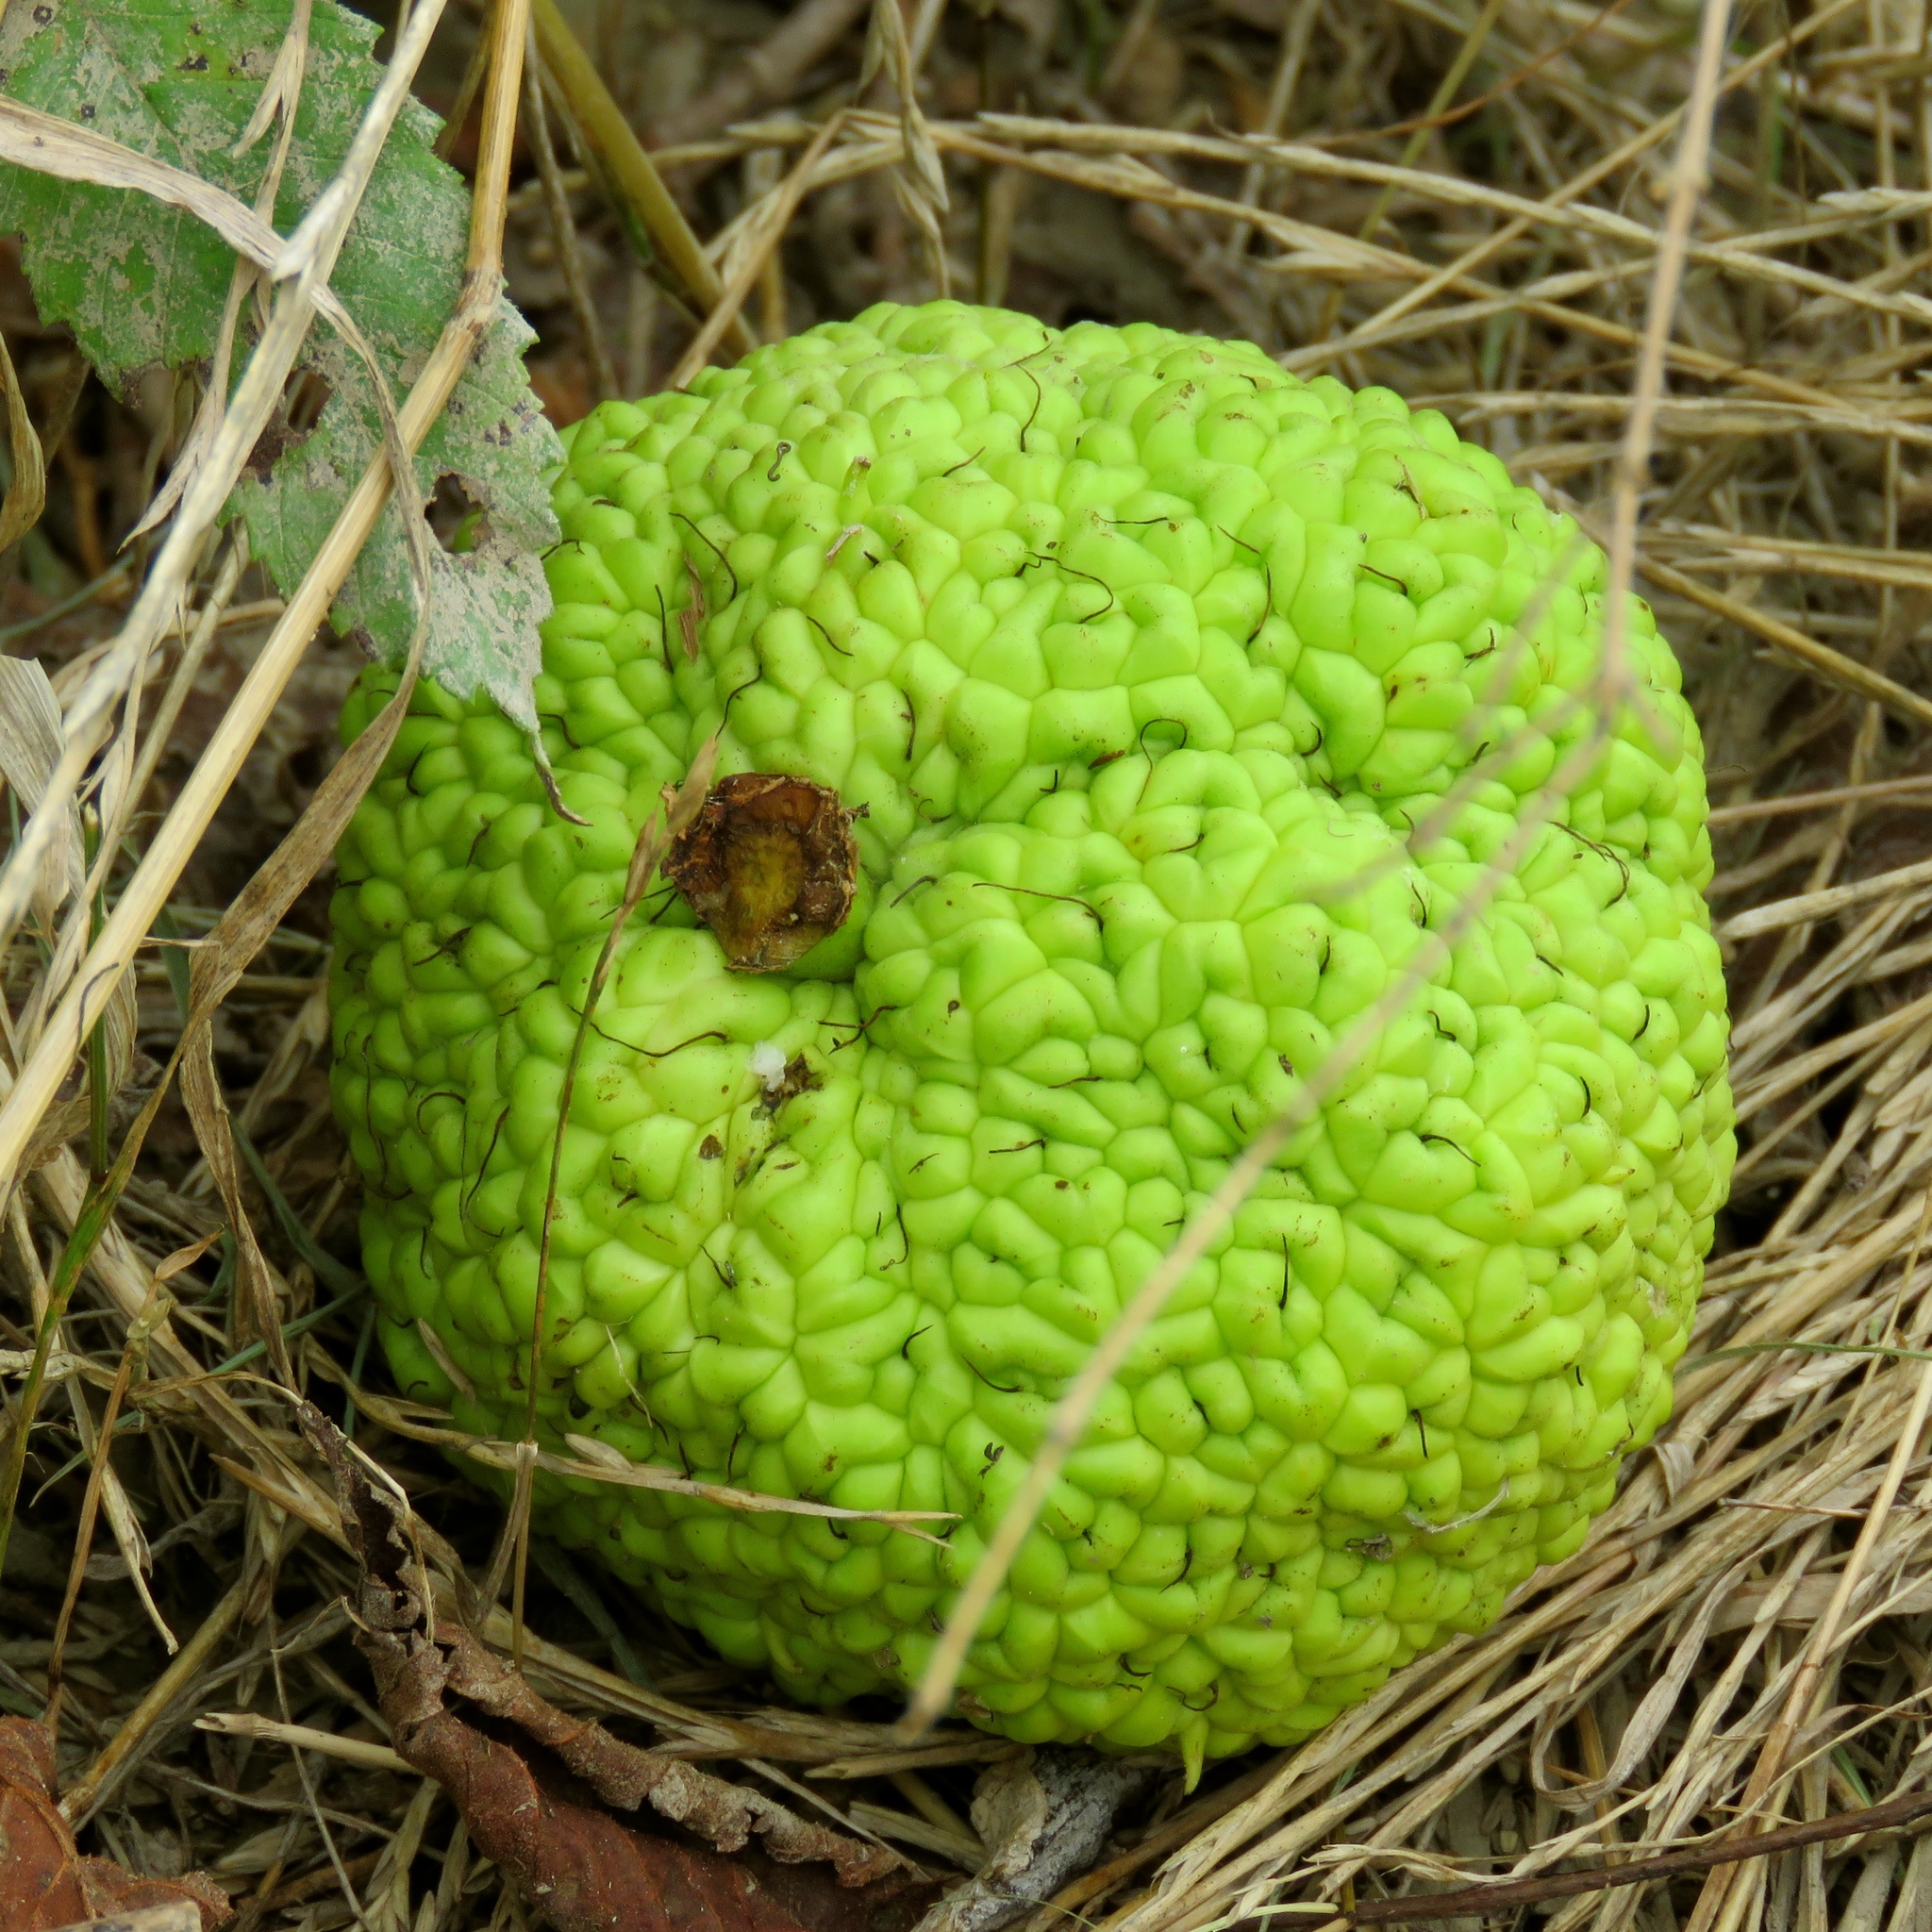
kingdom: Plantae
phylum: Tracheophyta
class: Magnoliopsida
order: Rosales
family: Moraceae
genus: Maclura
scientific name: Maclura pomifera
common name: Osage-orange
